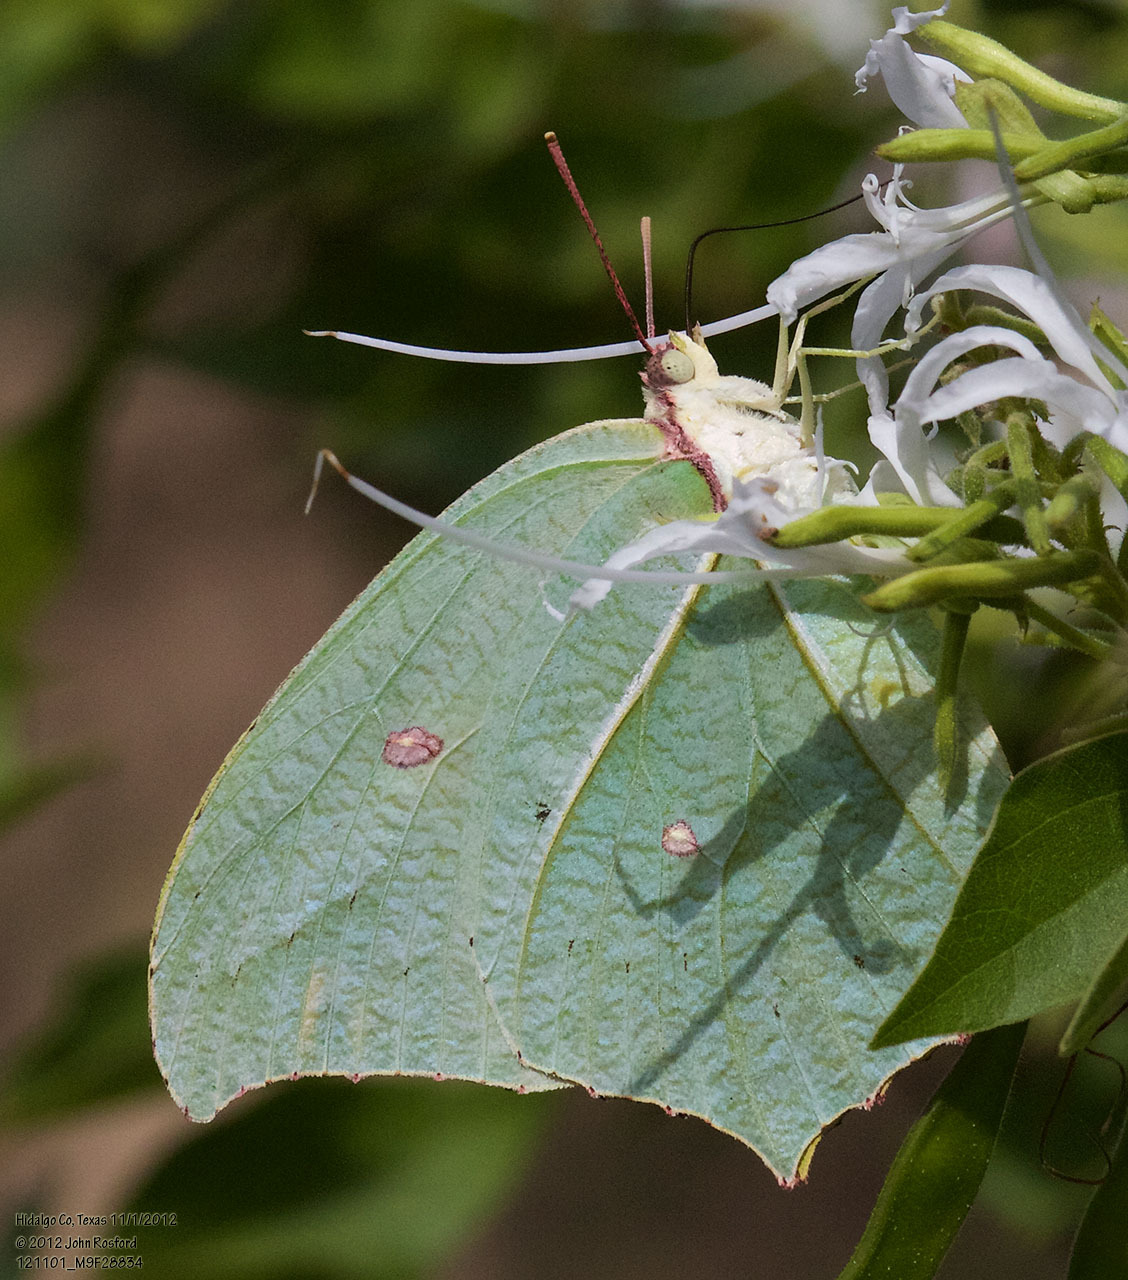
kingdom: Animalia
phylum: Arthropoda
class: Insecta
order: Lepidoptera
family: Pieridae
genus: Anteos
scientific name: Anteos maerula
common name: Angled sulphur
